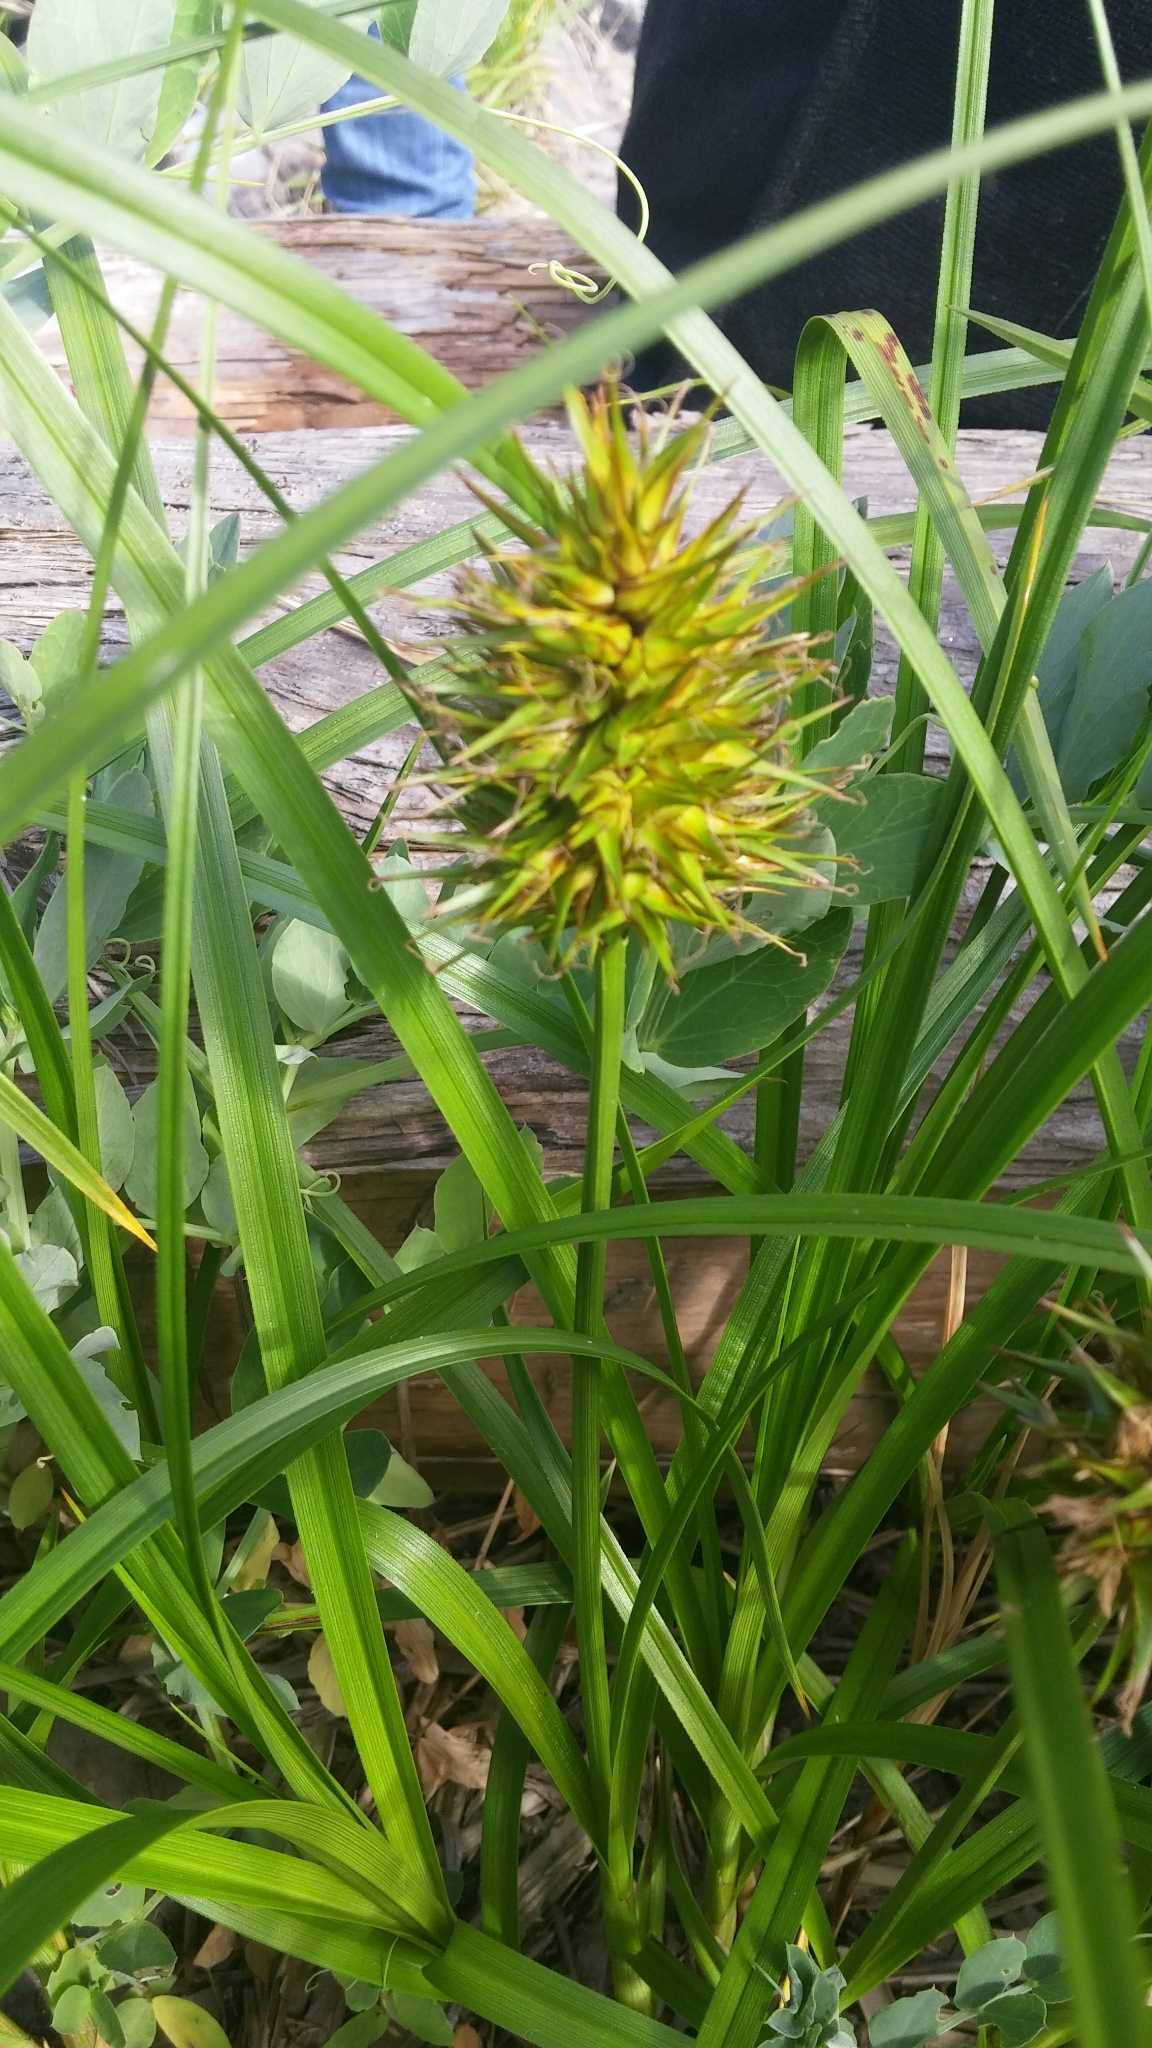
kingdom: Plantae
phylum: Tracheophyta
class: Liliopsida
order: Poales
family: Cyperaceae
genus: Carex
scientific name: Carex macrocephala
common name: Large-head sedge
